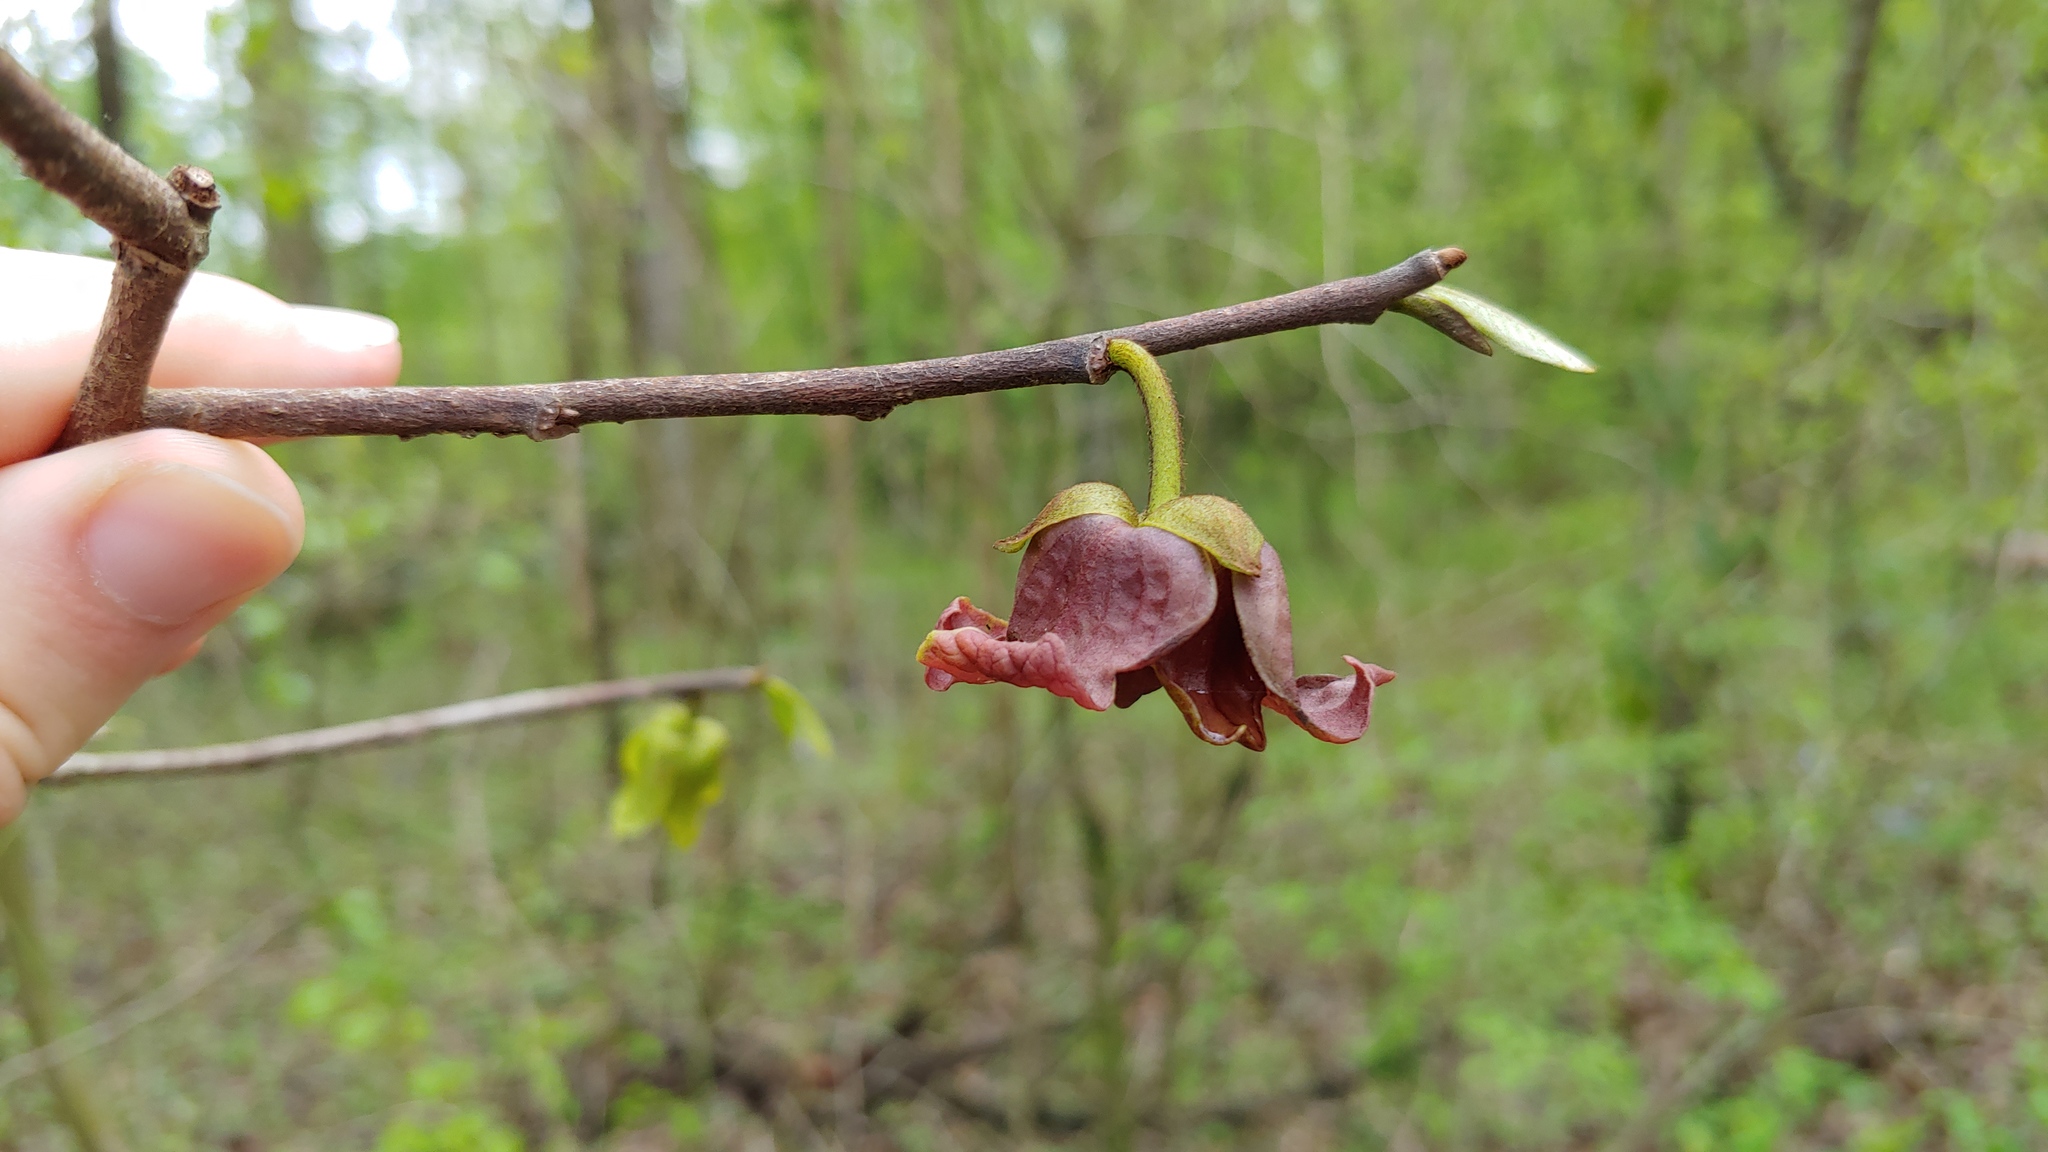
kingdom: Plantae
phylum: Tracheophyta
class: Magnoliopsida
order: Magnoliales
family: Annonaceae
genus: Asimina
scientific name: Asimina triloba
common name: Dog-banana
